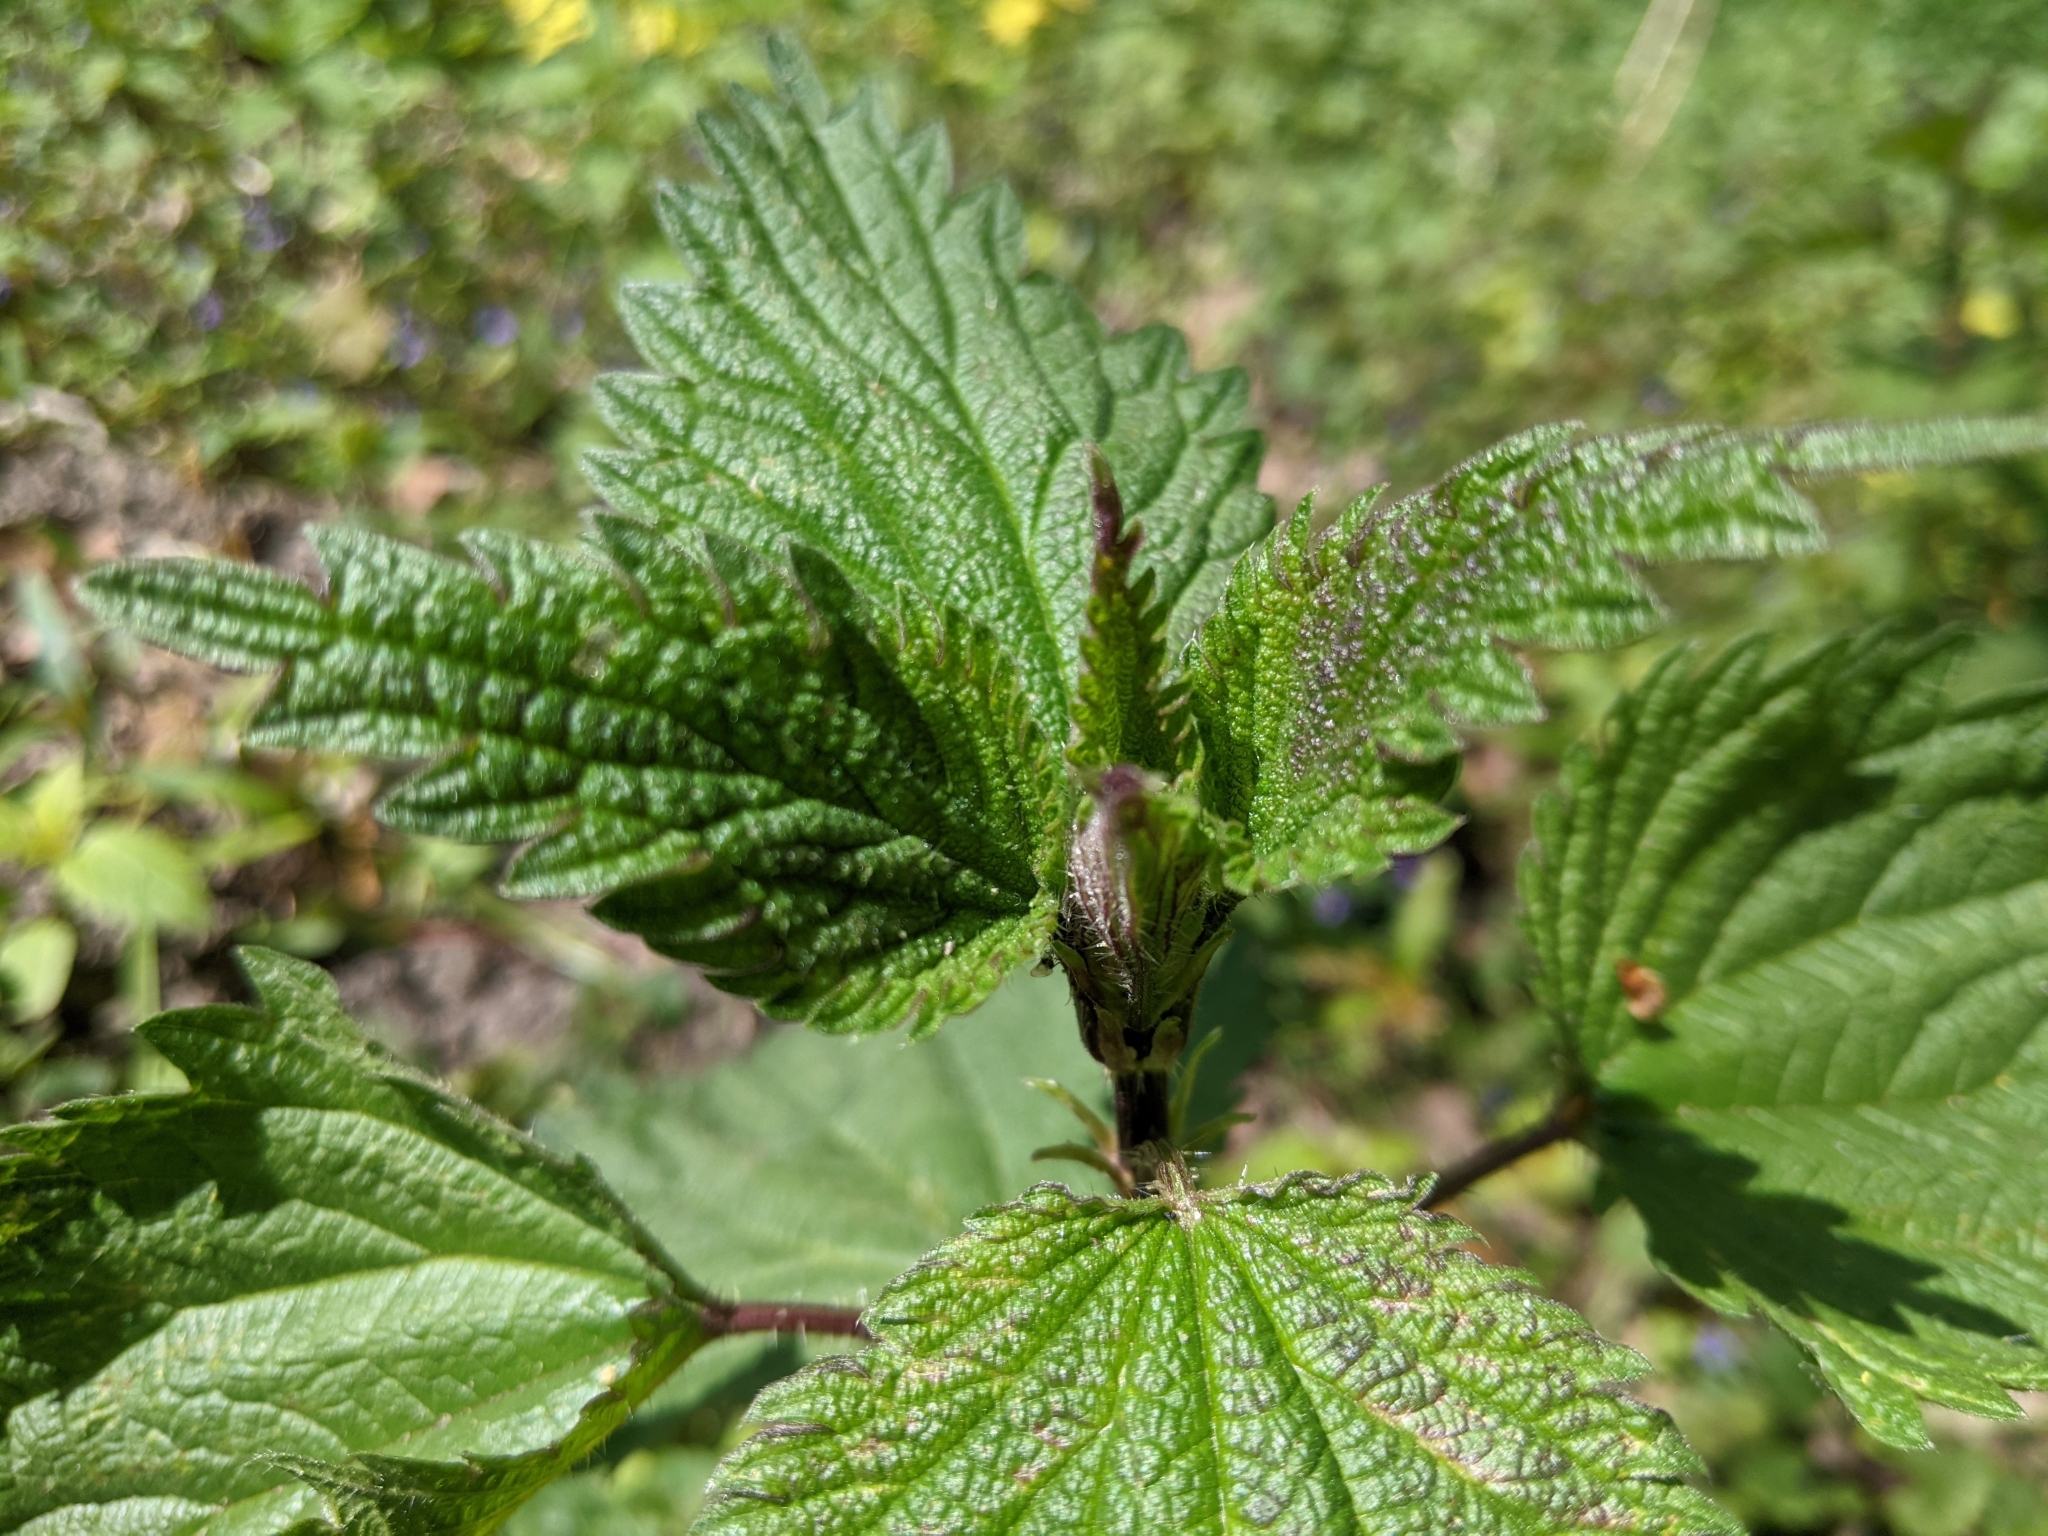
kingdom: Plantae
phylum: Tracheophyta
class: Magnoliopsida
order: Rosales
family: Urticaceae
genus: Urtica
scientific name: Urtica dioica
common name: Common nettle
